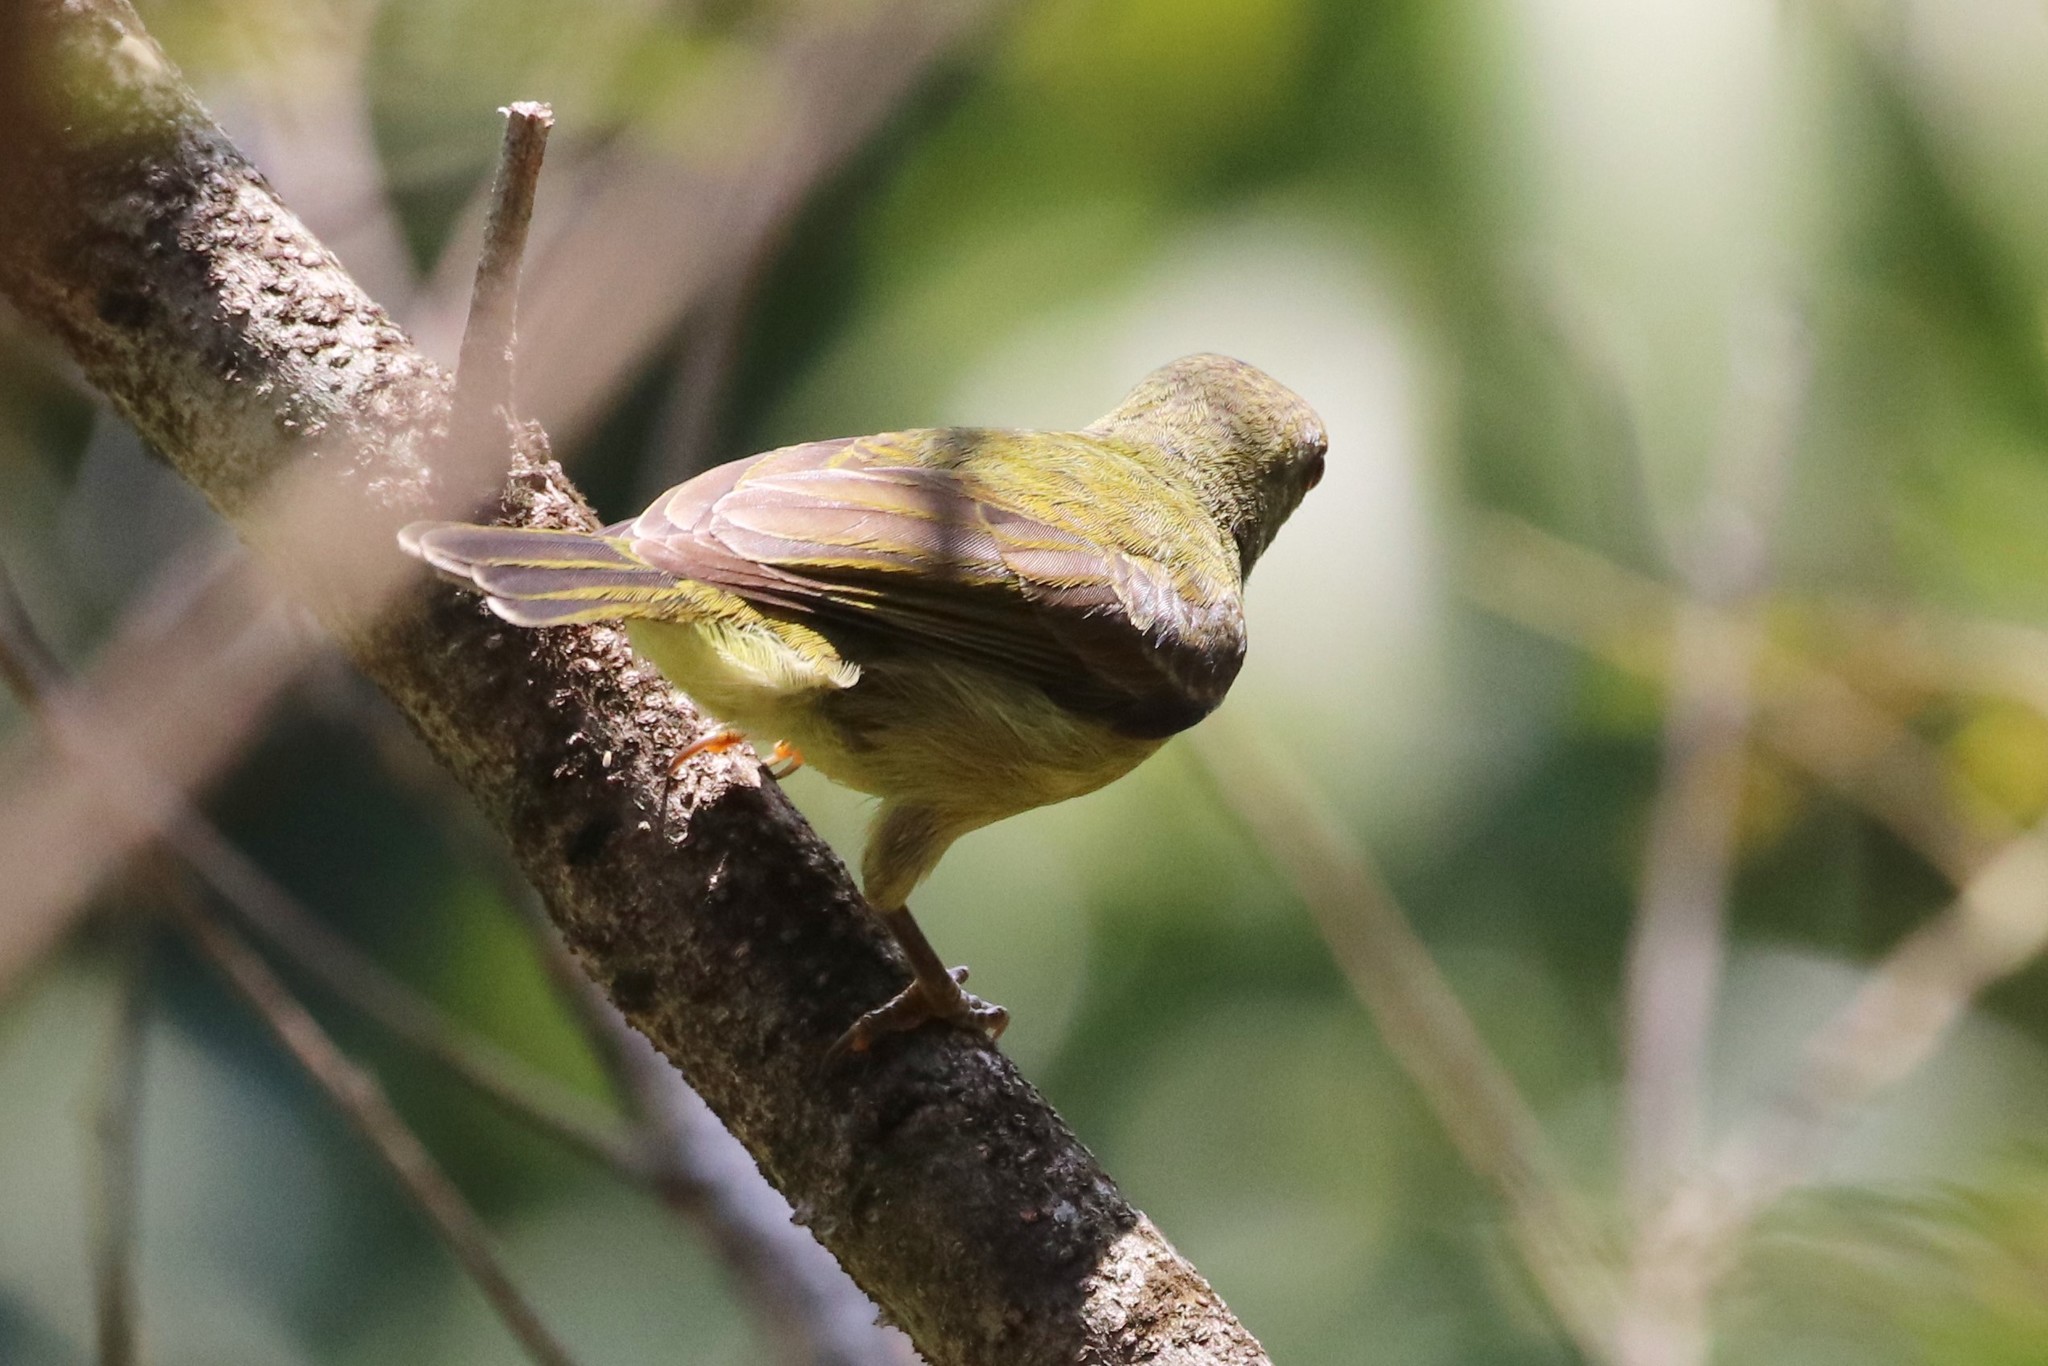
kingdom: Animalia
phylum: Chordata
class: Aves
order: Passeriformes
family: Nectariniidae
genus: Anthreptes
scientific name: Anthreptes malacensis
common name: Brown-throated sunbird
